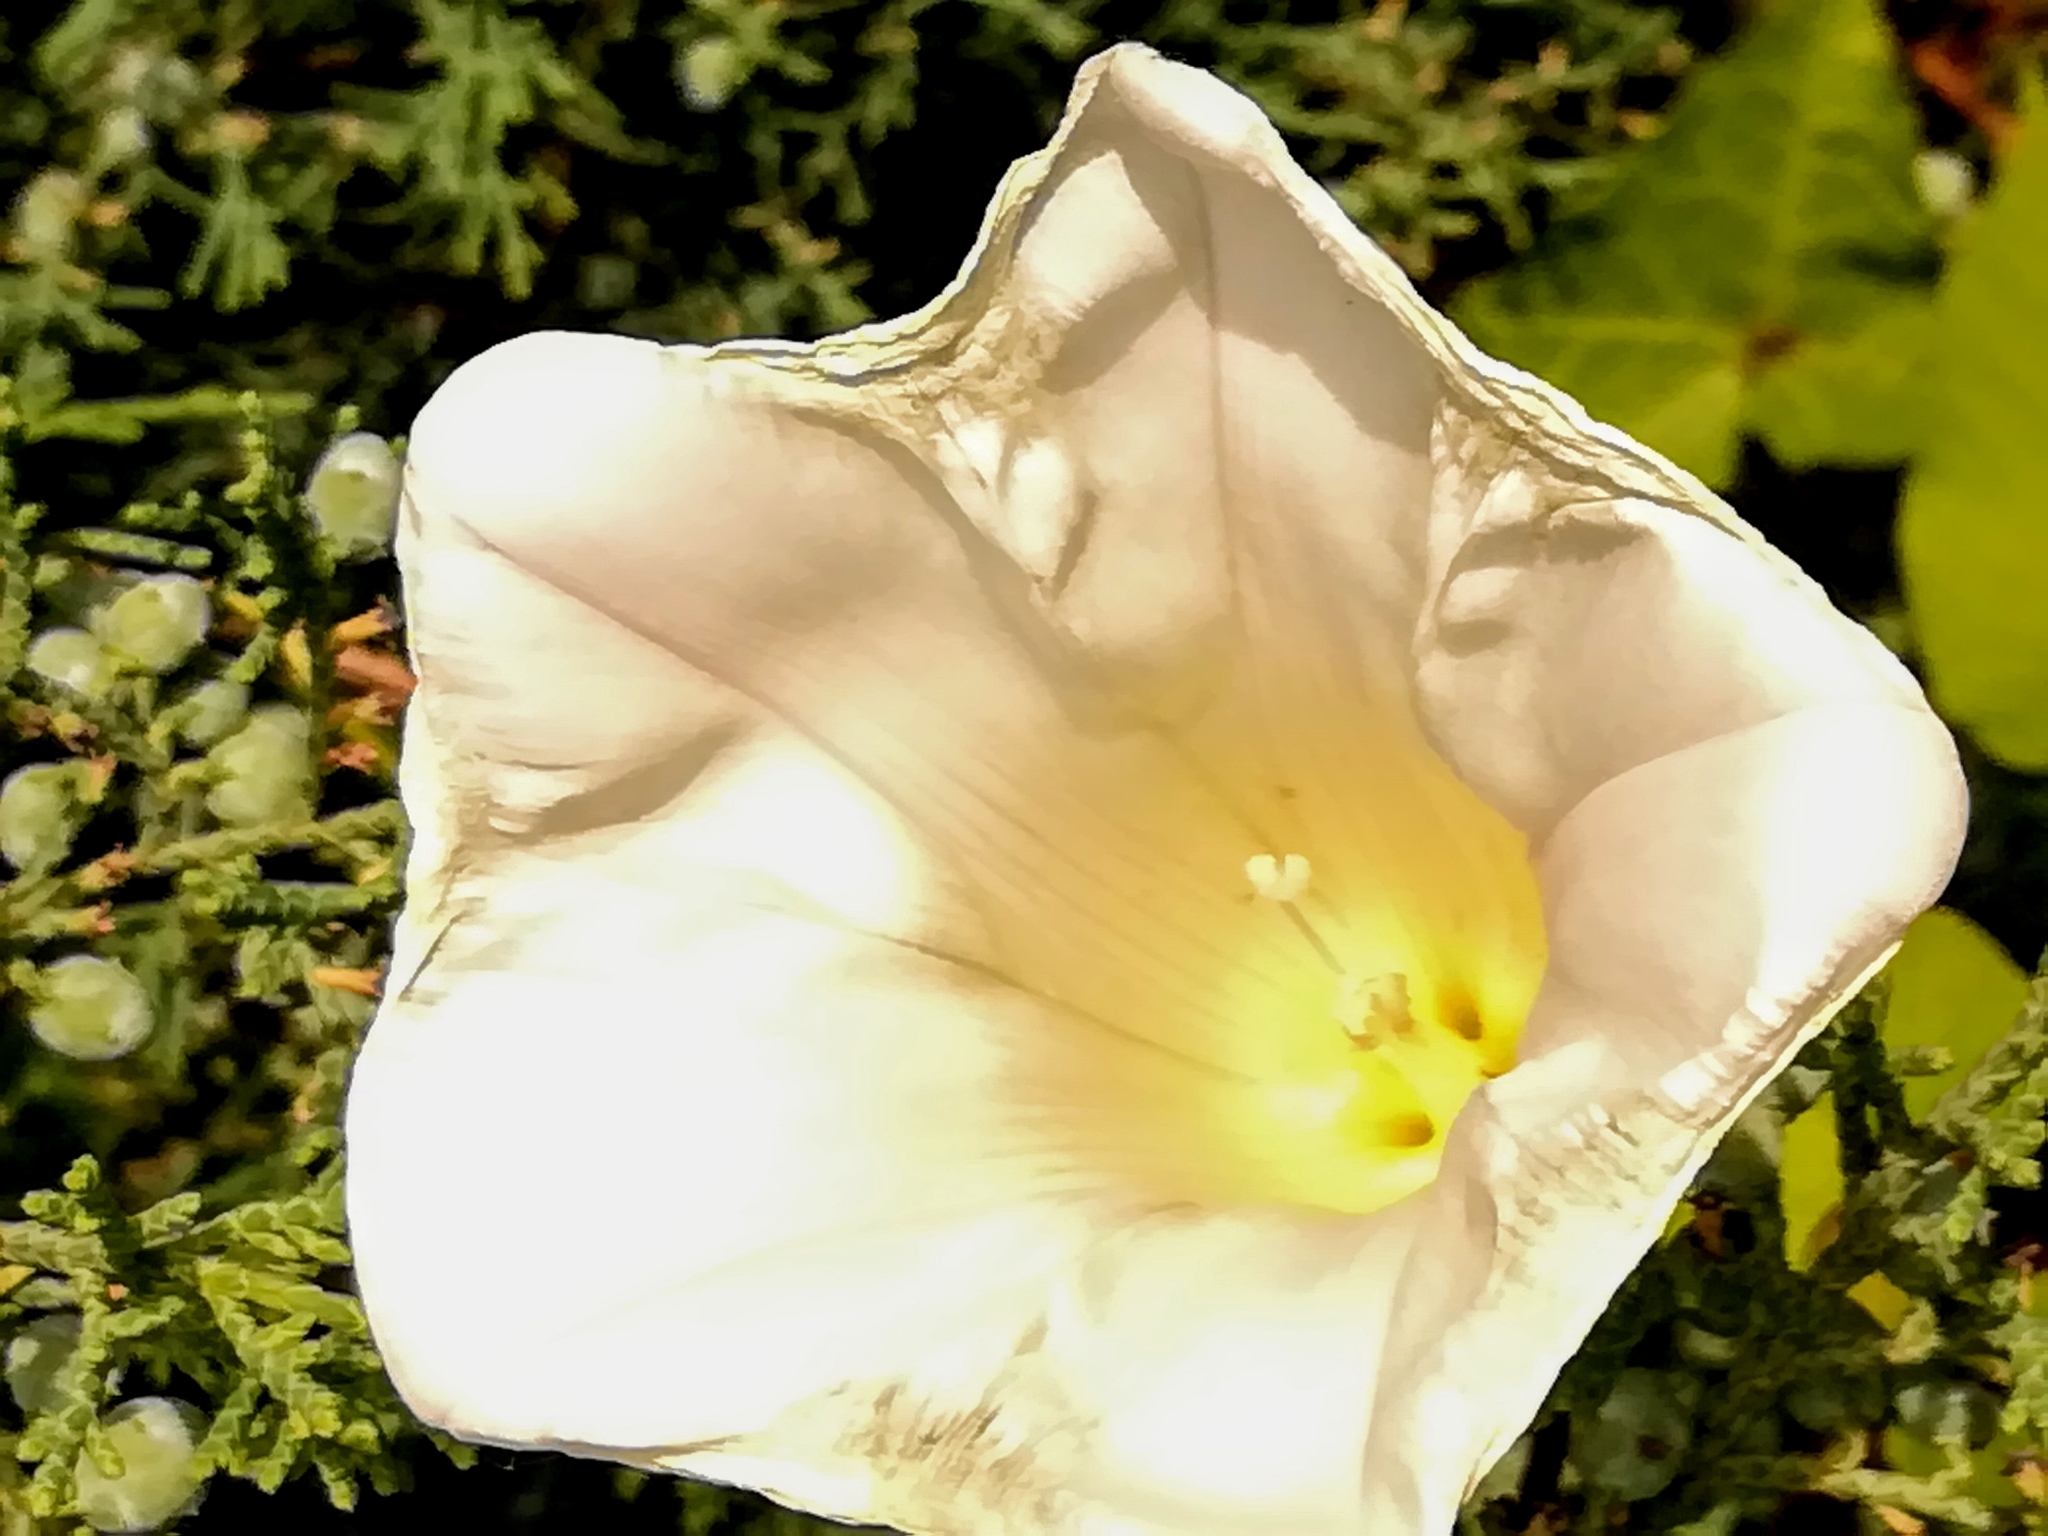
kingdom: Plantae
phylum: Tracheophyta
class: Magnoliopsida
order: Solanales
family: Convolvulaceae
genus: Calystegia
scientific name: Calystegia silvatica
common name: Large bindweed
